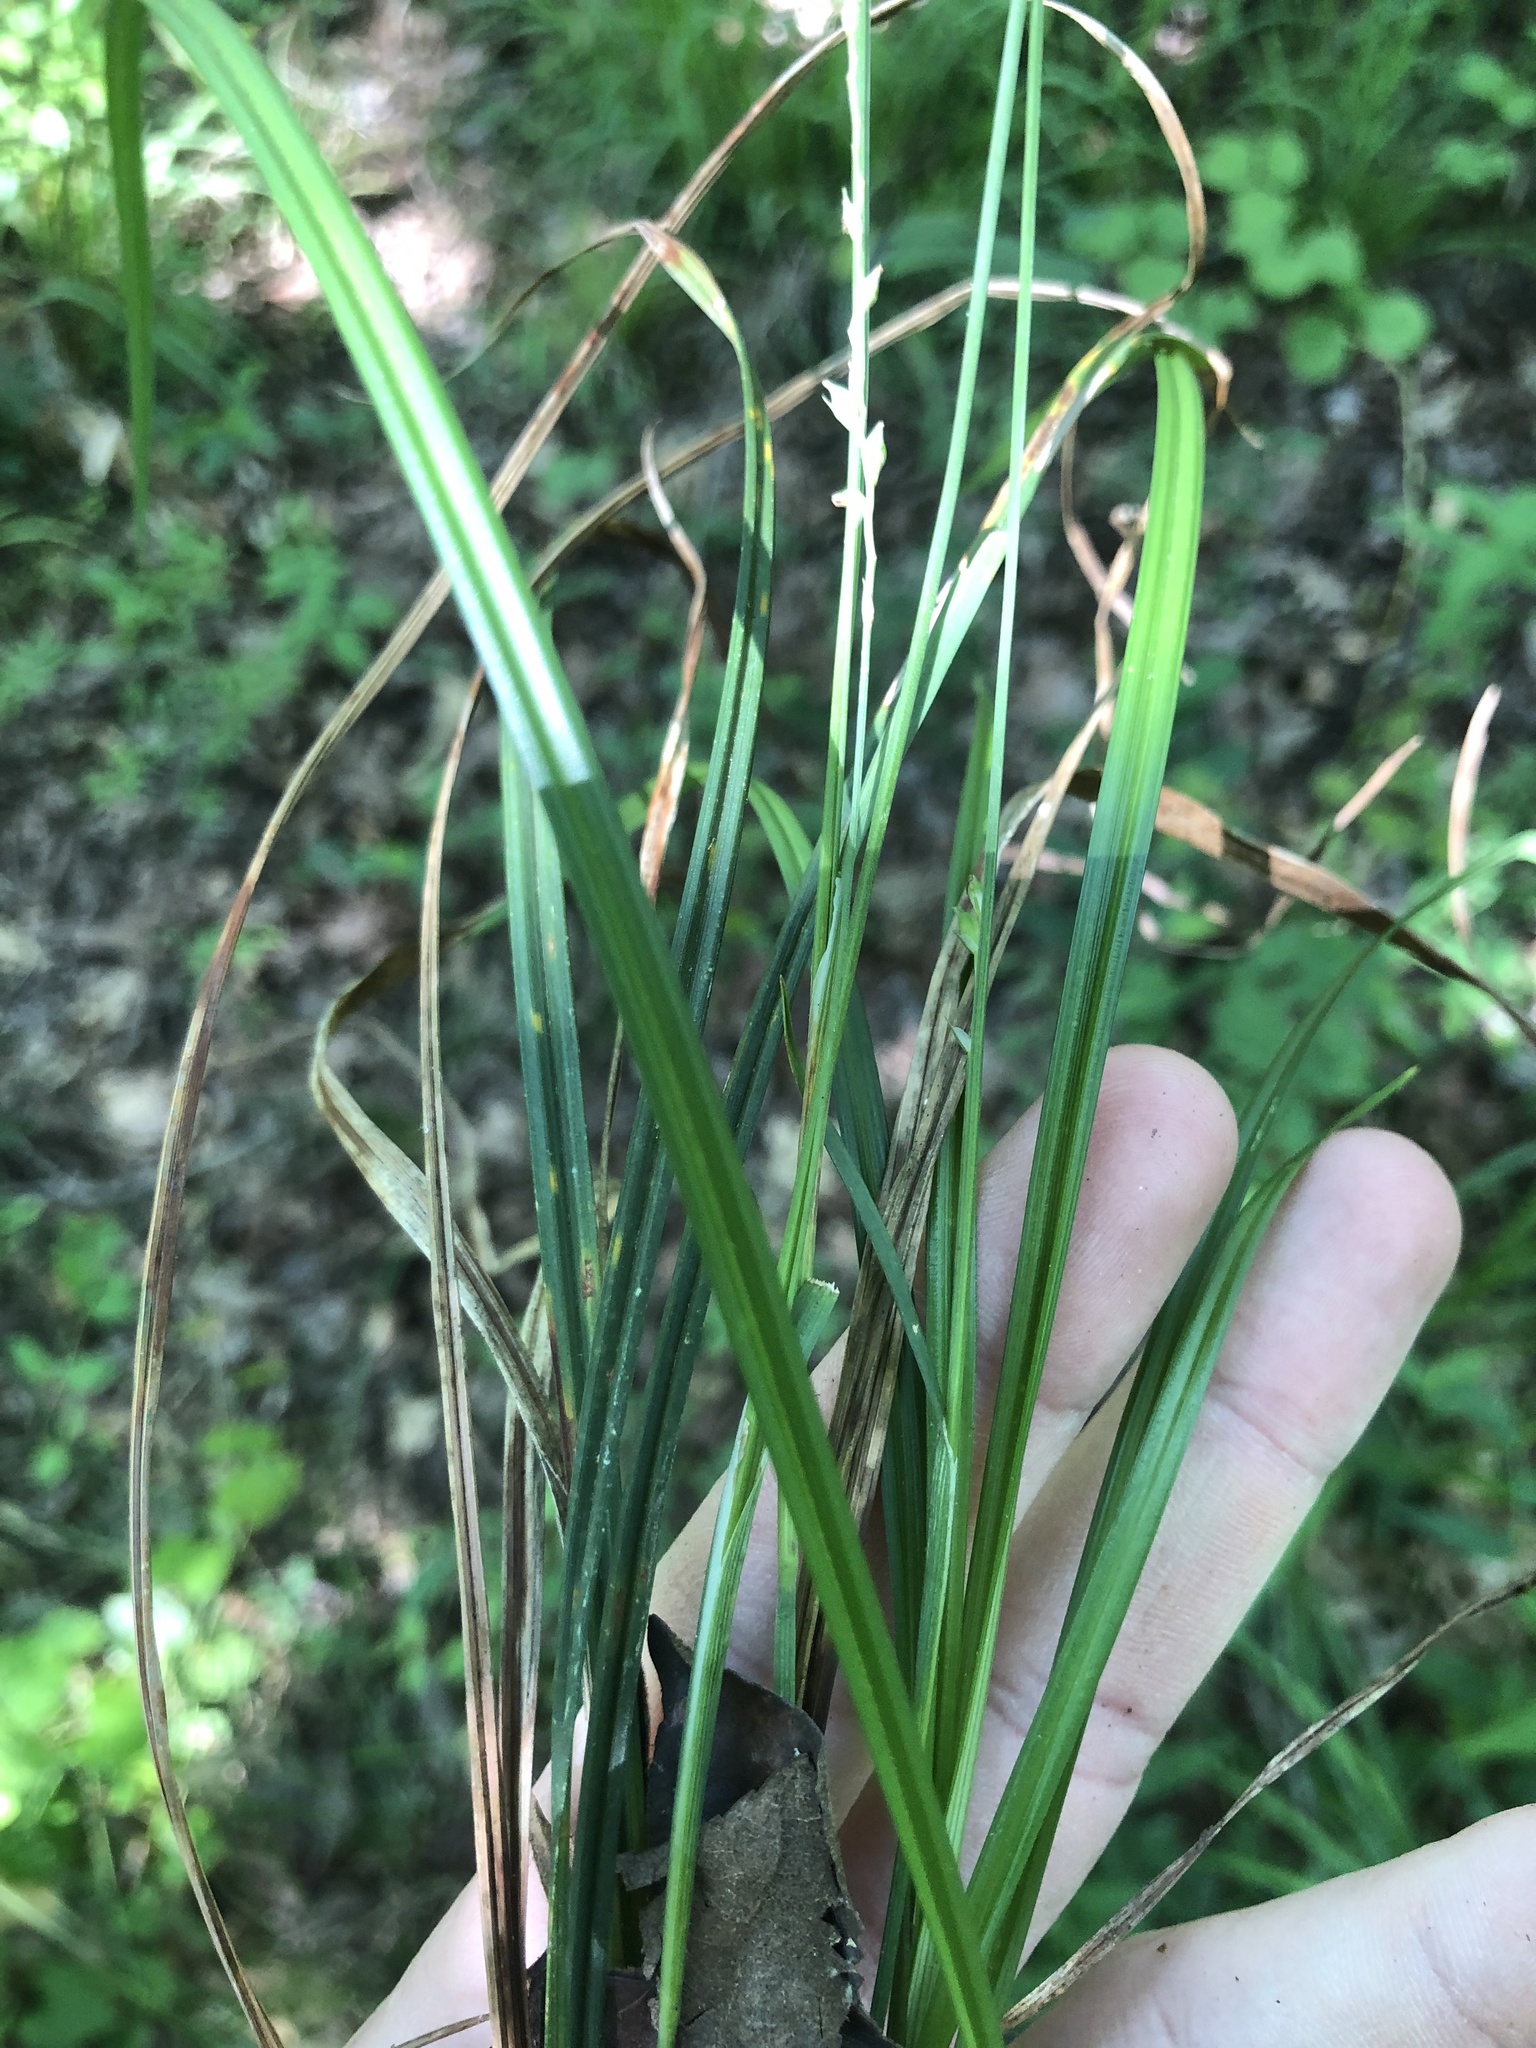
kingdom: Plantae
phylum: Tracheophyta
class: Liliopsida
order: Poales
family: Cyperaceae
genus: Carex
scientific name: Carex ignota
